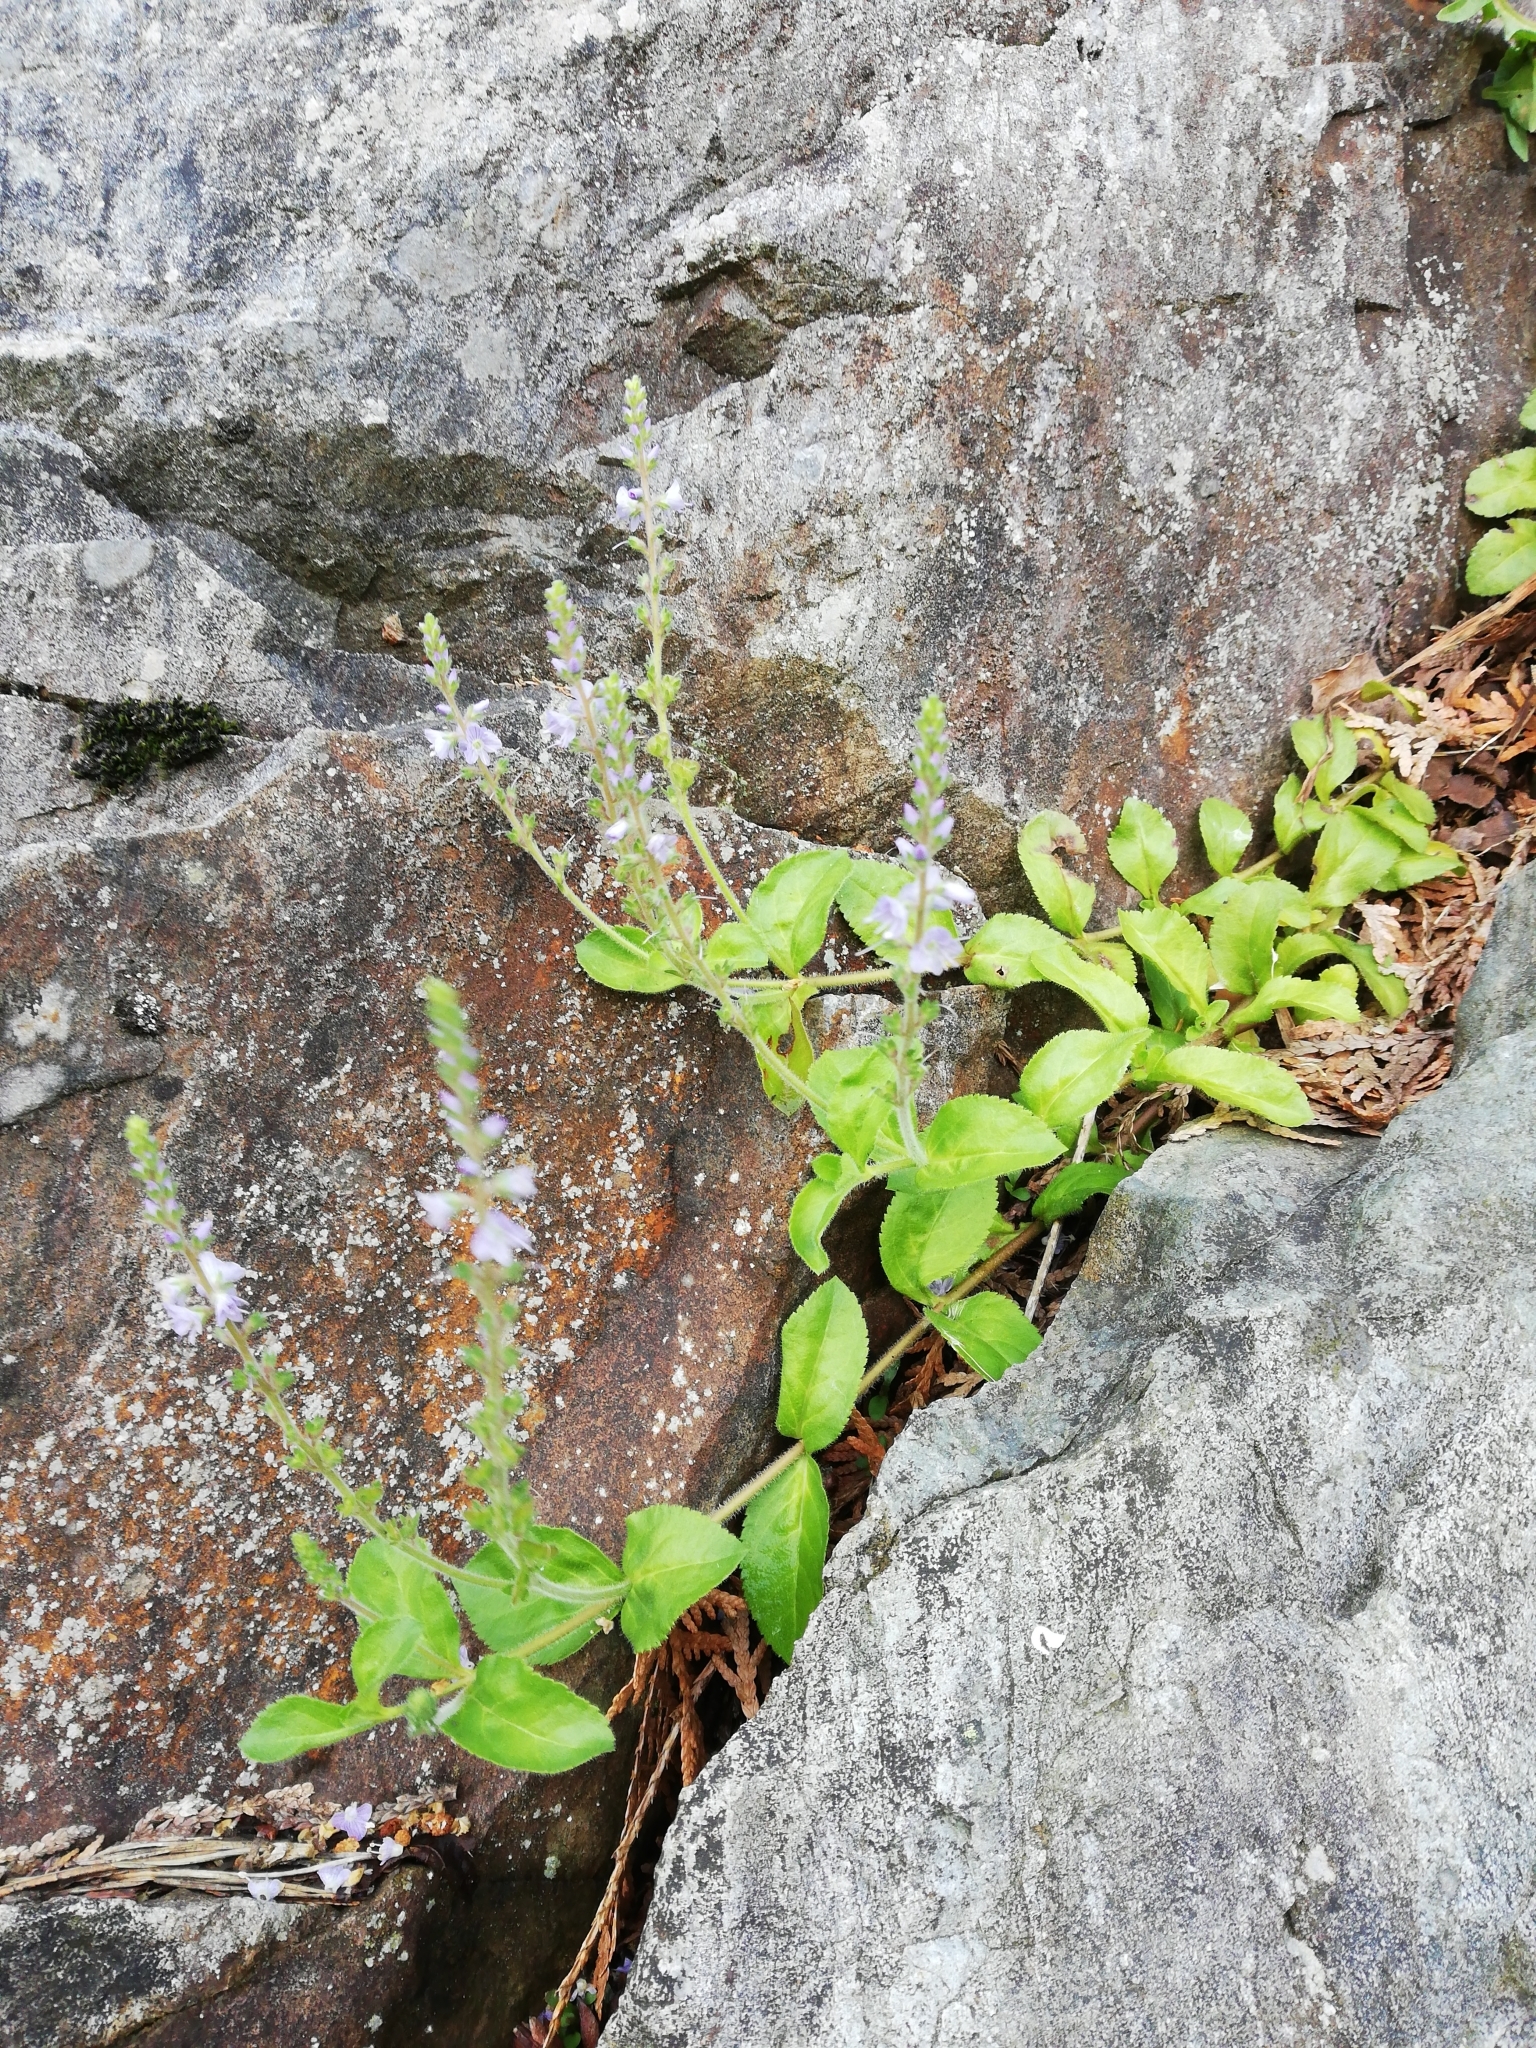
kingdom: Plantae
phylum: Tracheophyta
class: Magnoliopsida
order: Lamiales
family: Plantaginaceae
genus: Veronica
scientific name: Veronica officinalis
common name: Common speedwell
